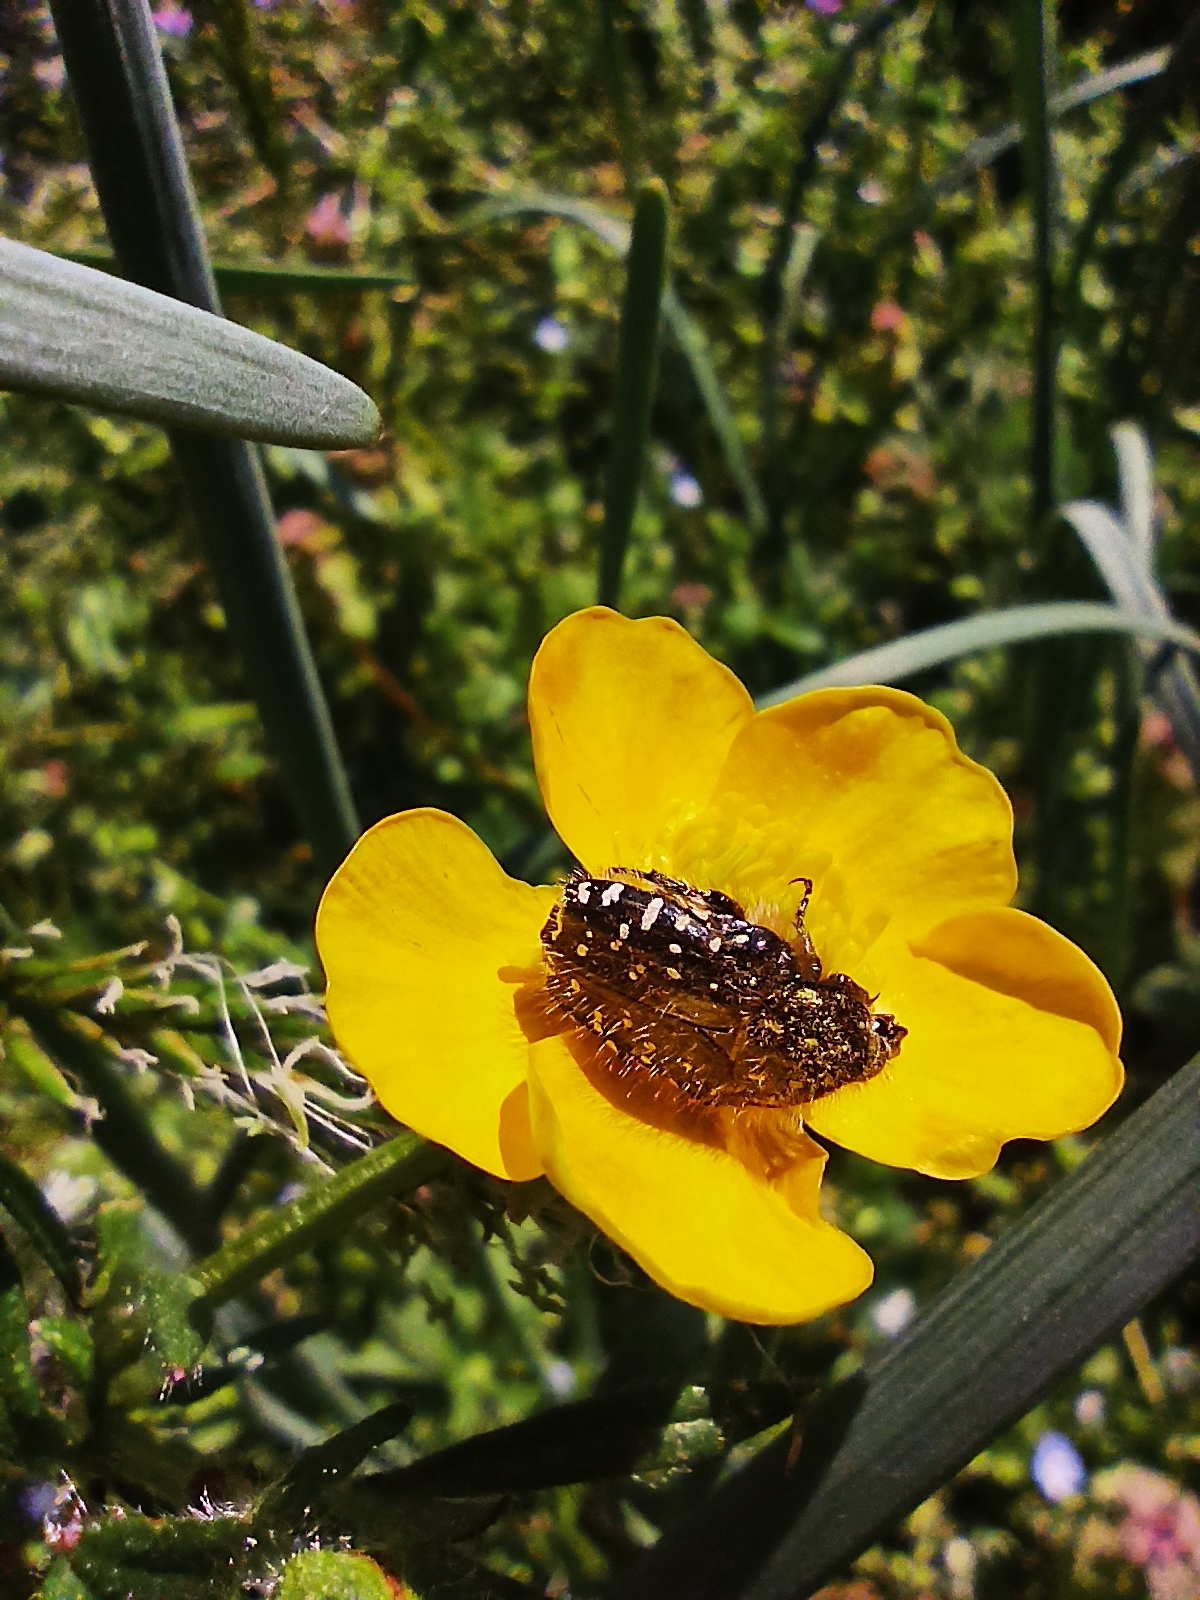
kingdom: Animalia
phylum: Arthropoda
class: Insecta
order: Coleoptera
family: Scarabaeidae
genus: Oxythyrea
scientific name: Oxythyrea funesta
